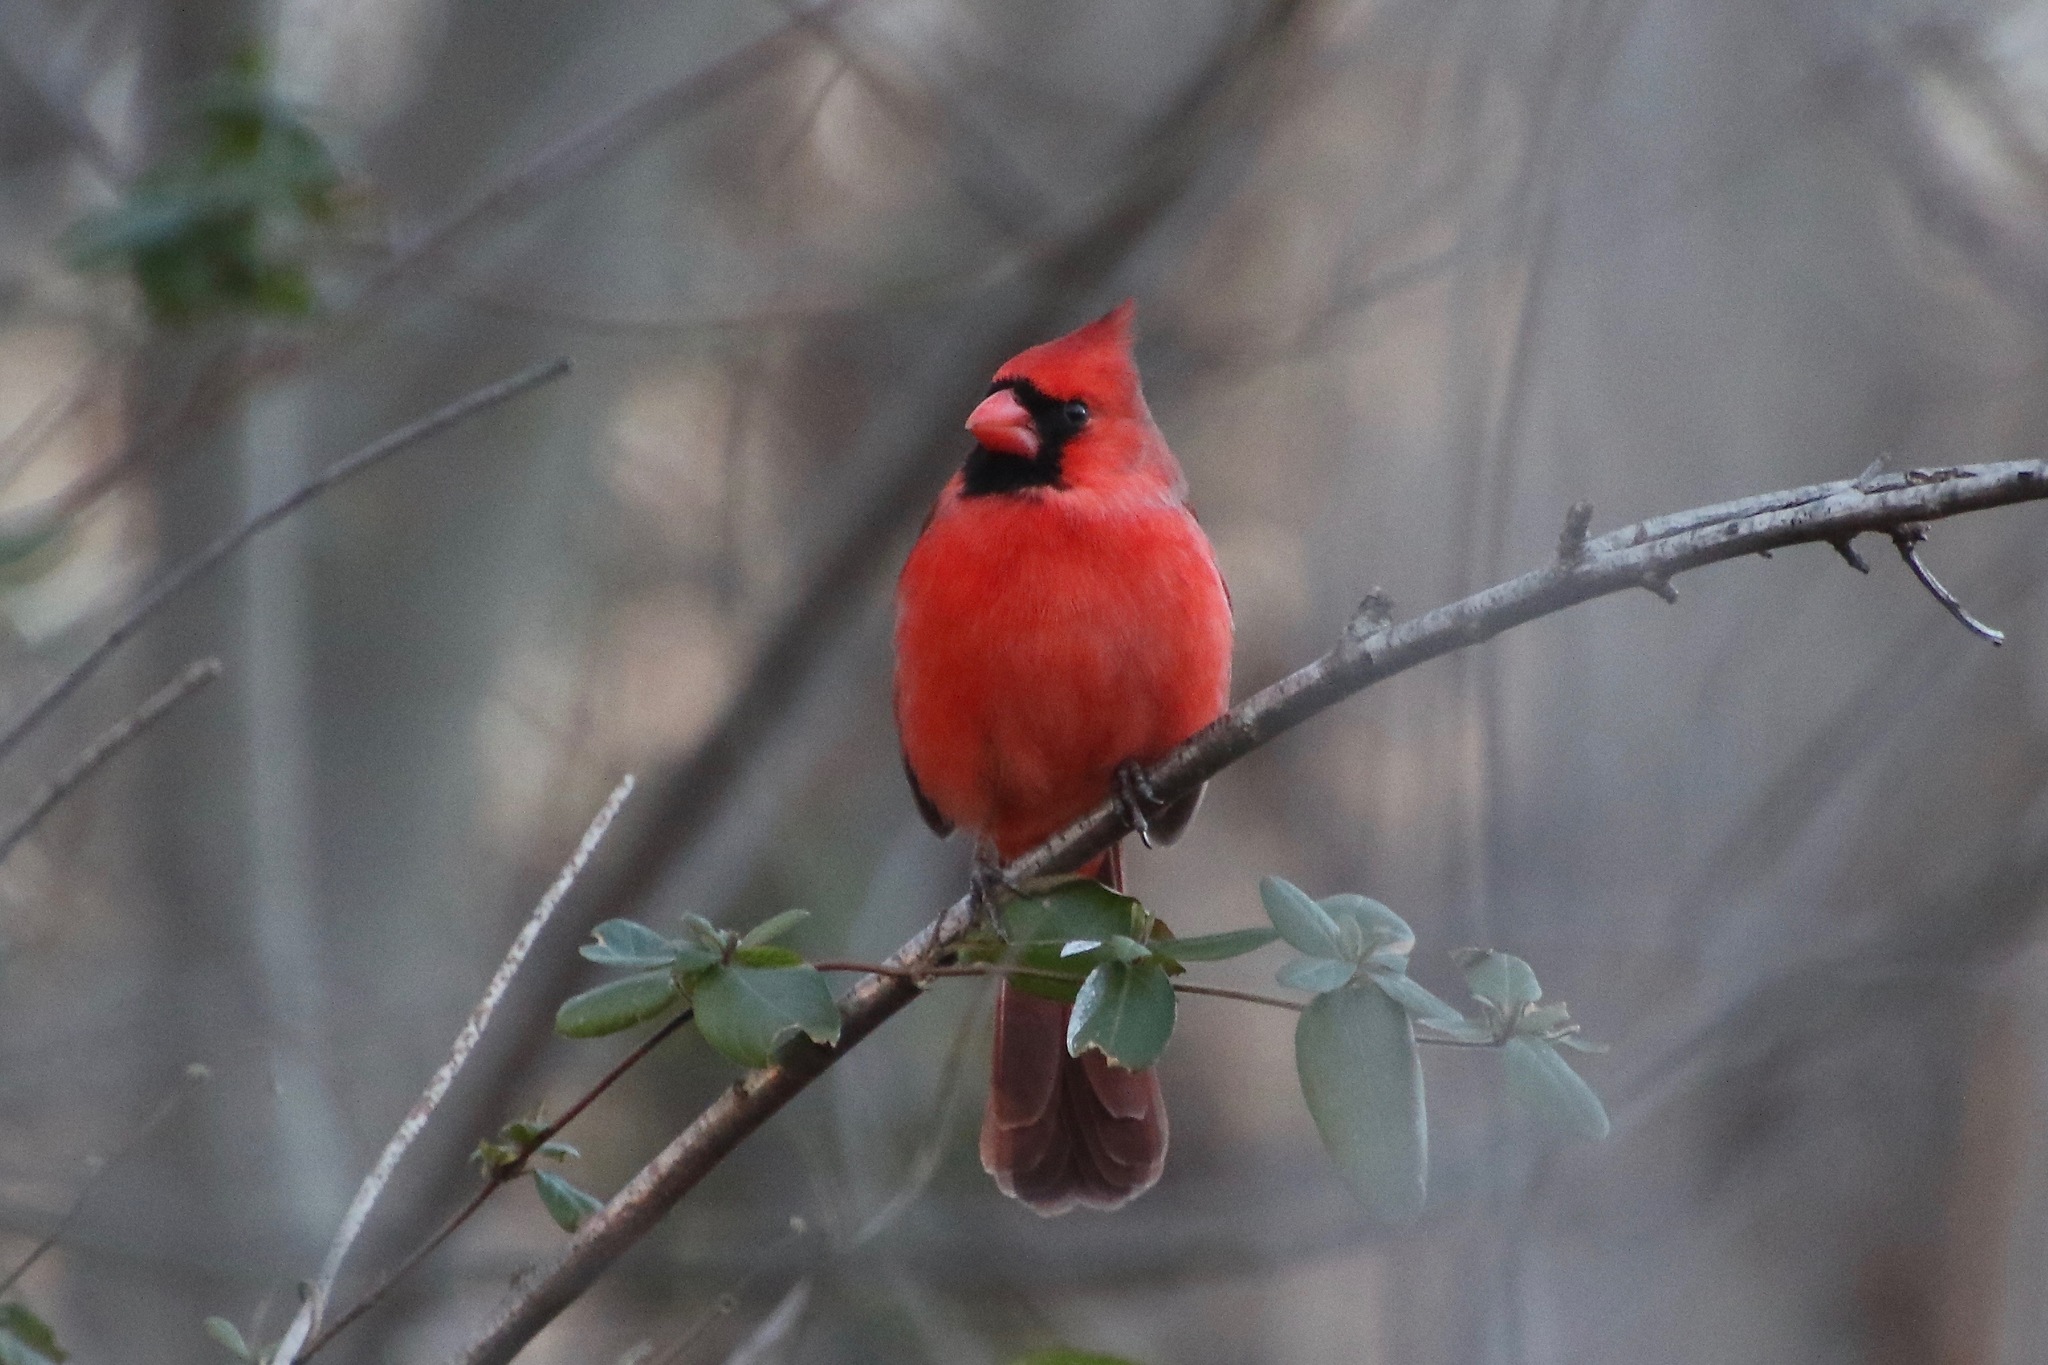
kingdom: Animalia
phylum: Chordata
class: Aves
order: Passeriformes
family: Cardinalidae
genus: Cardinalis
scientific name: Cardinalis cardinalis
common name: Northern cardinal
